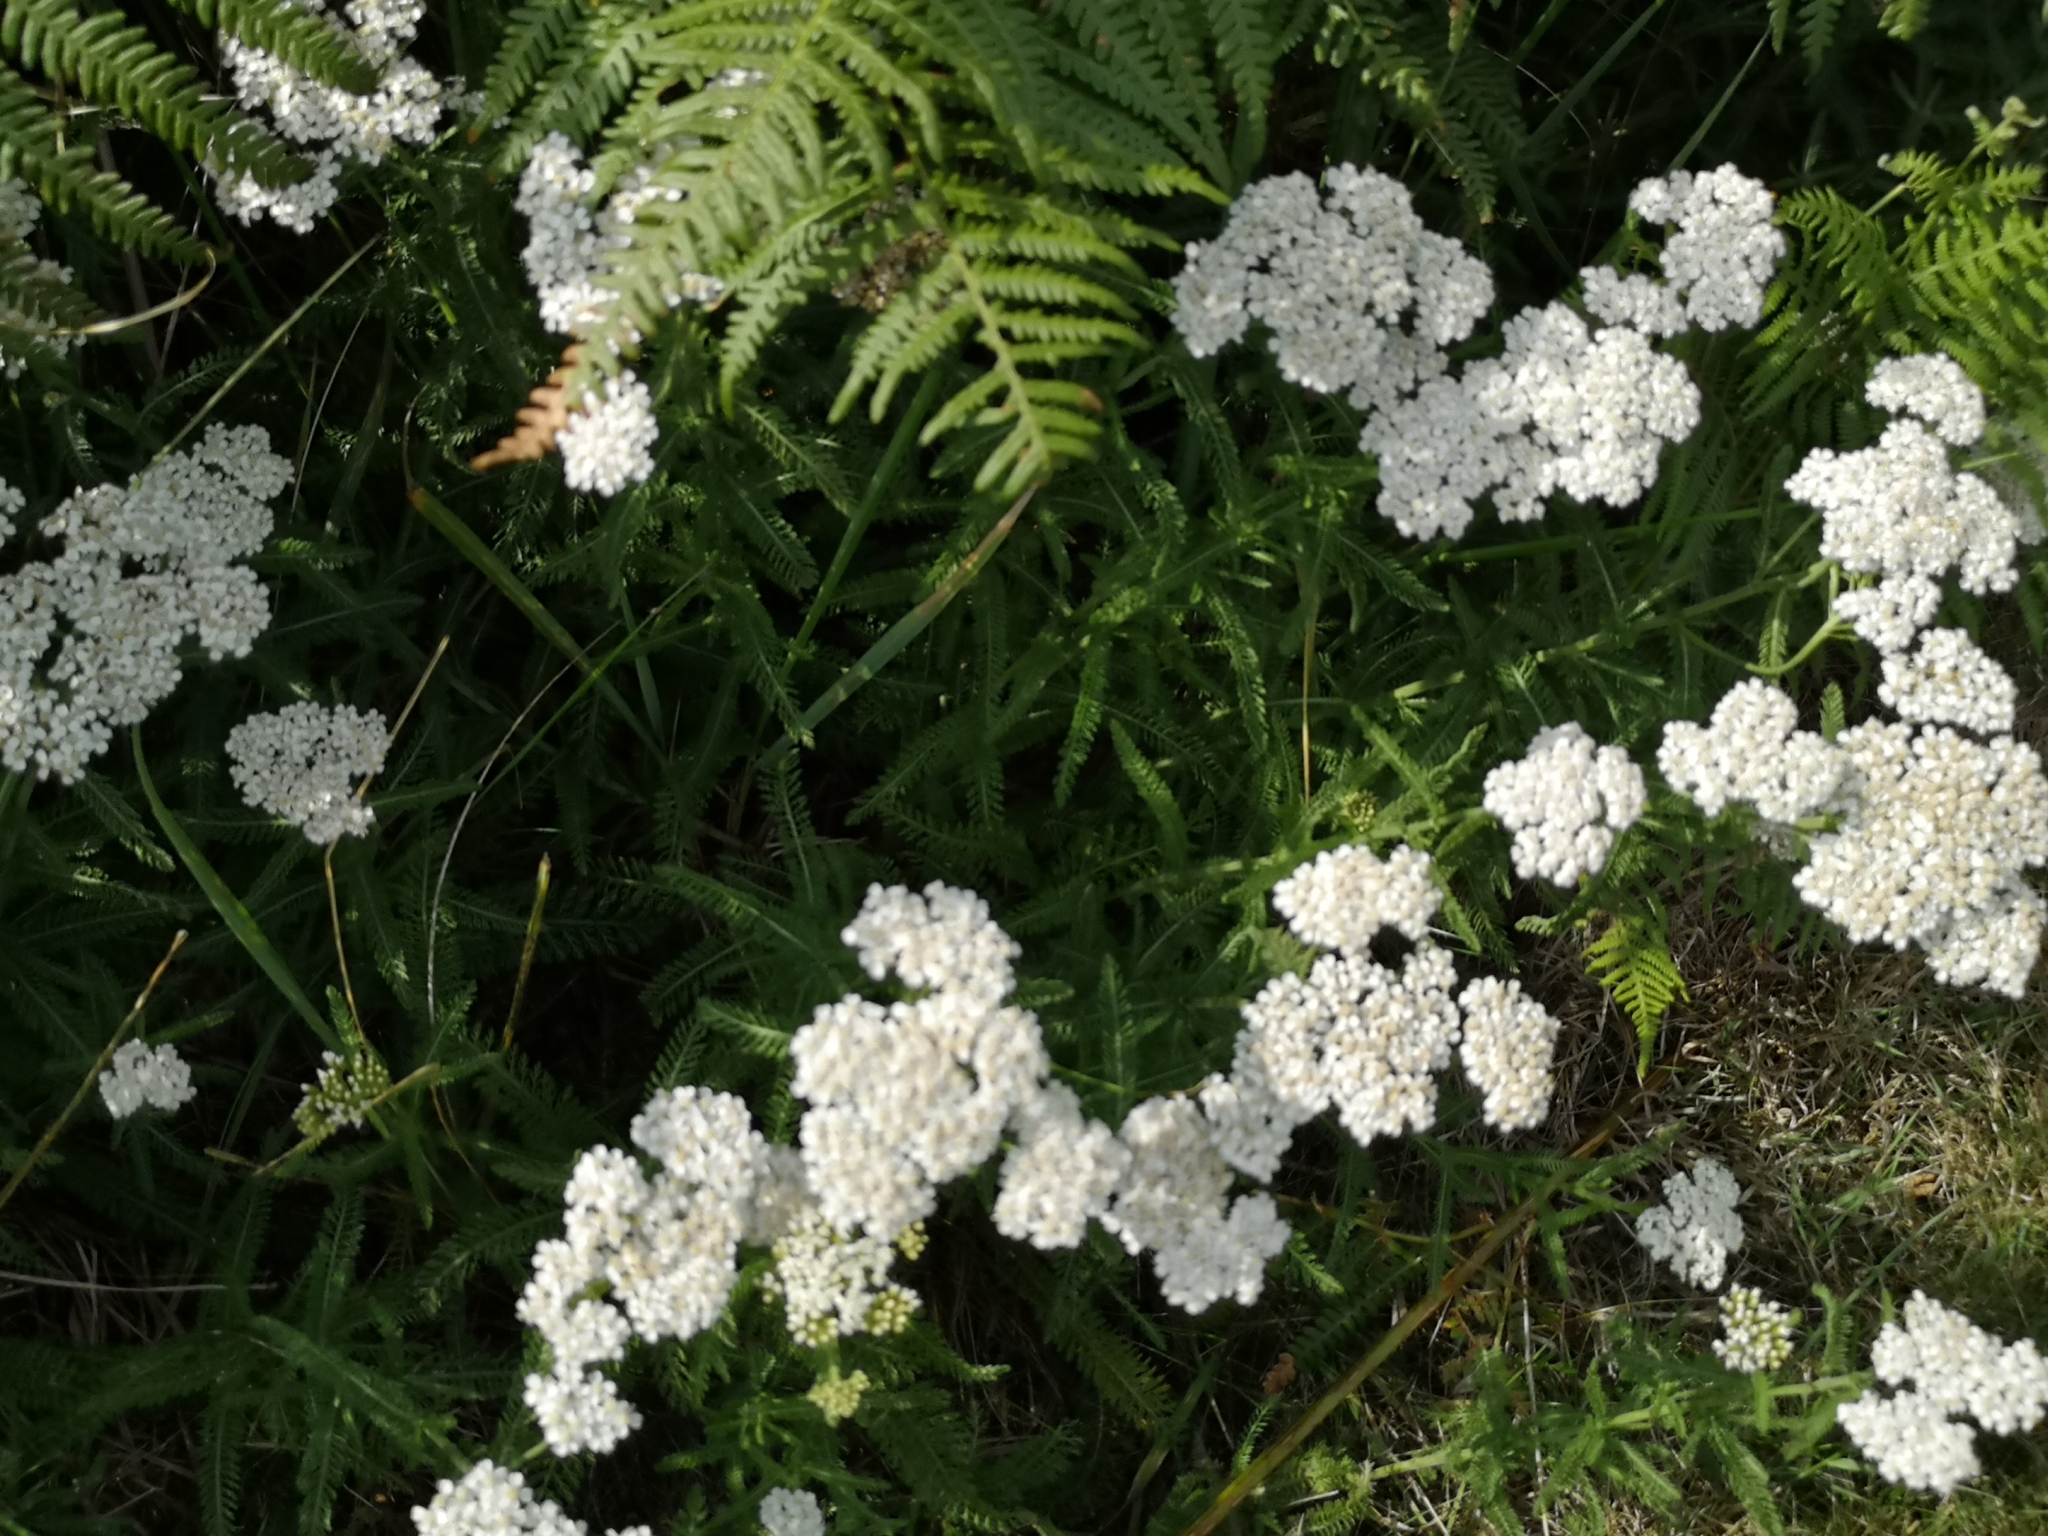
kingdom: Plantae
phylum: Tracheophyta
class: Magnoliopsida
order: Asterales
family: Asteraceae
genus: Achillea
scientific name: Achillea millefolium
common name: Yarrow
